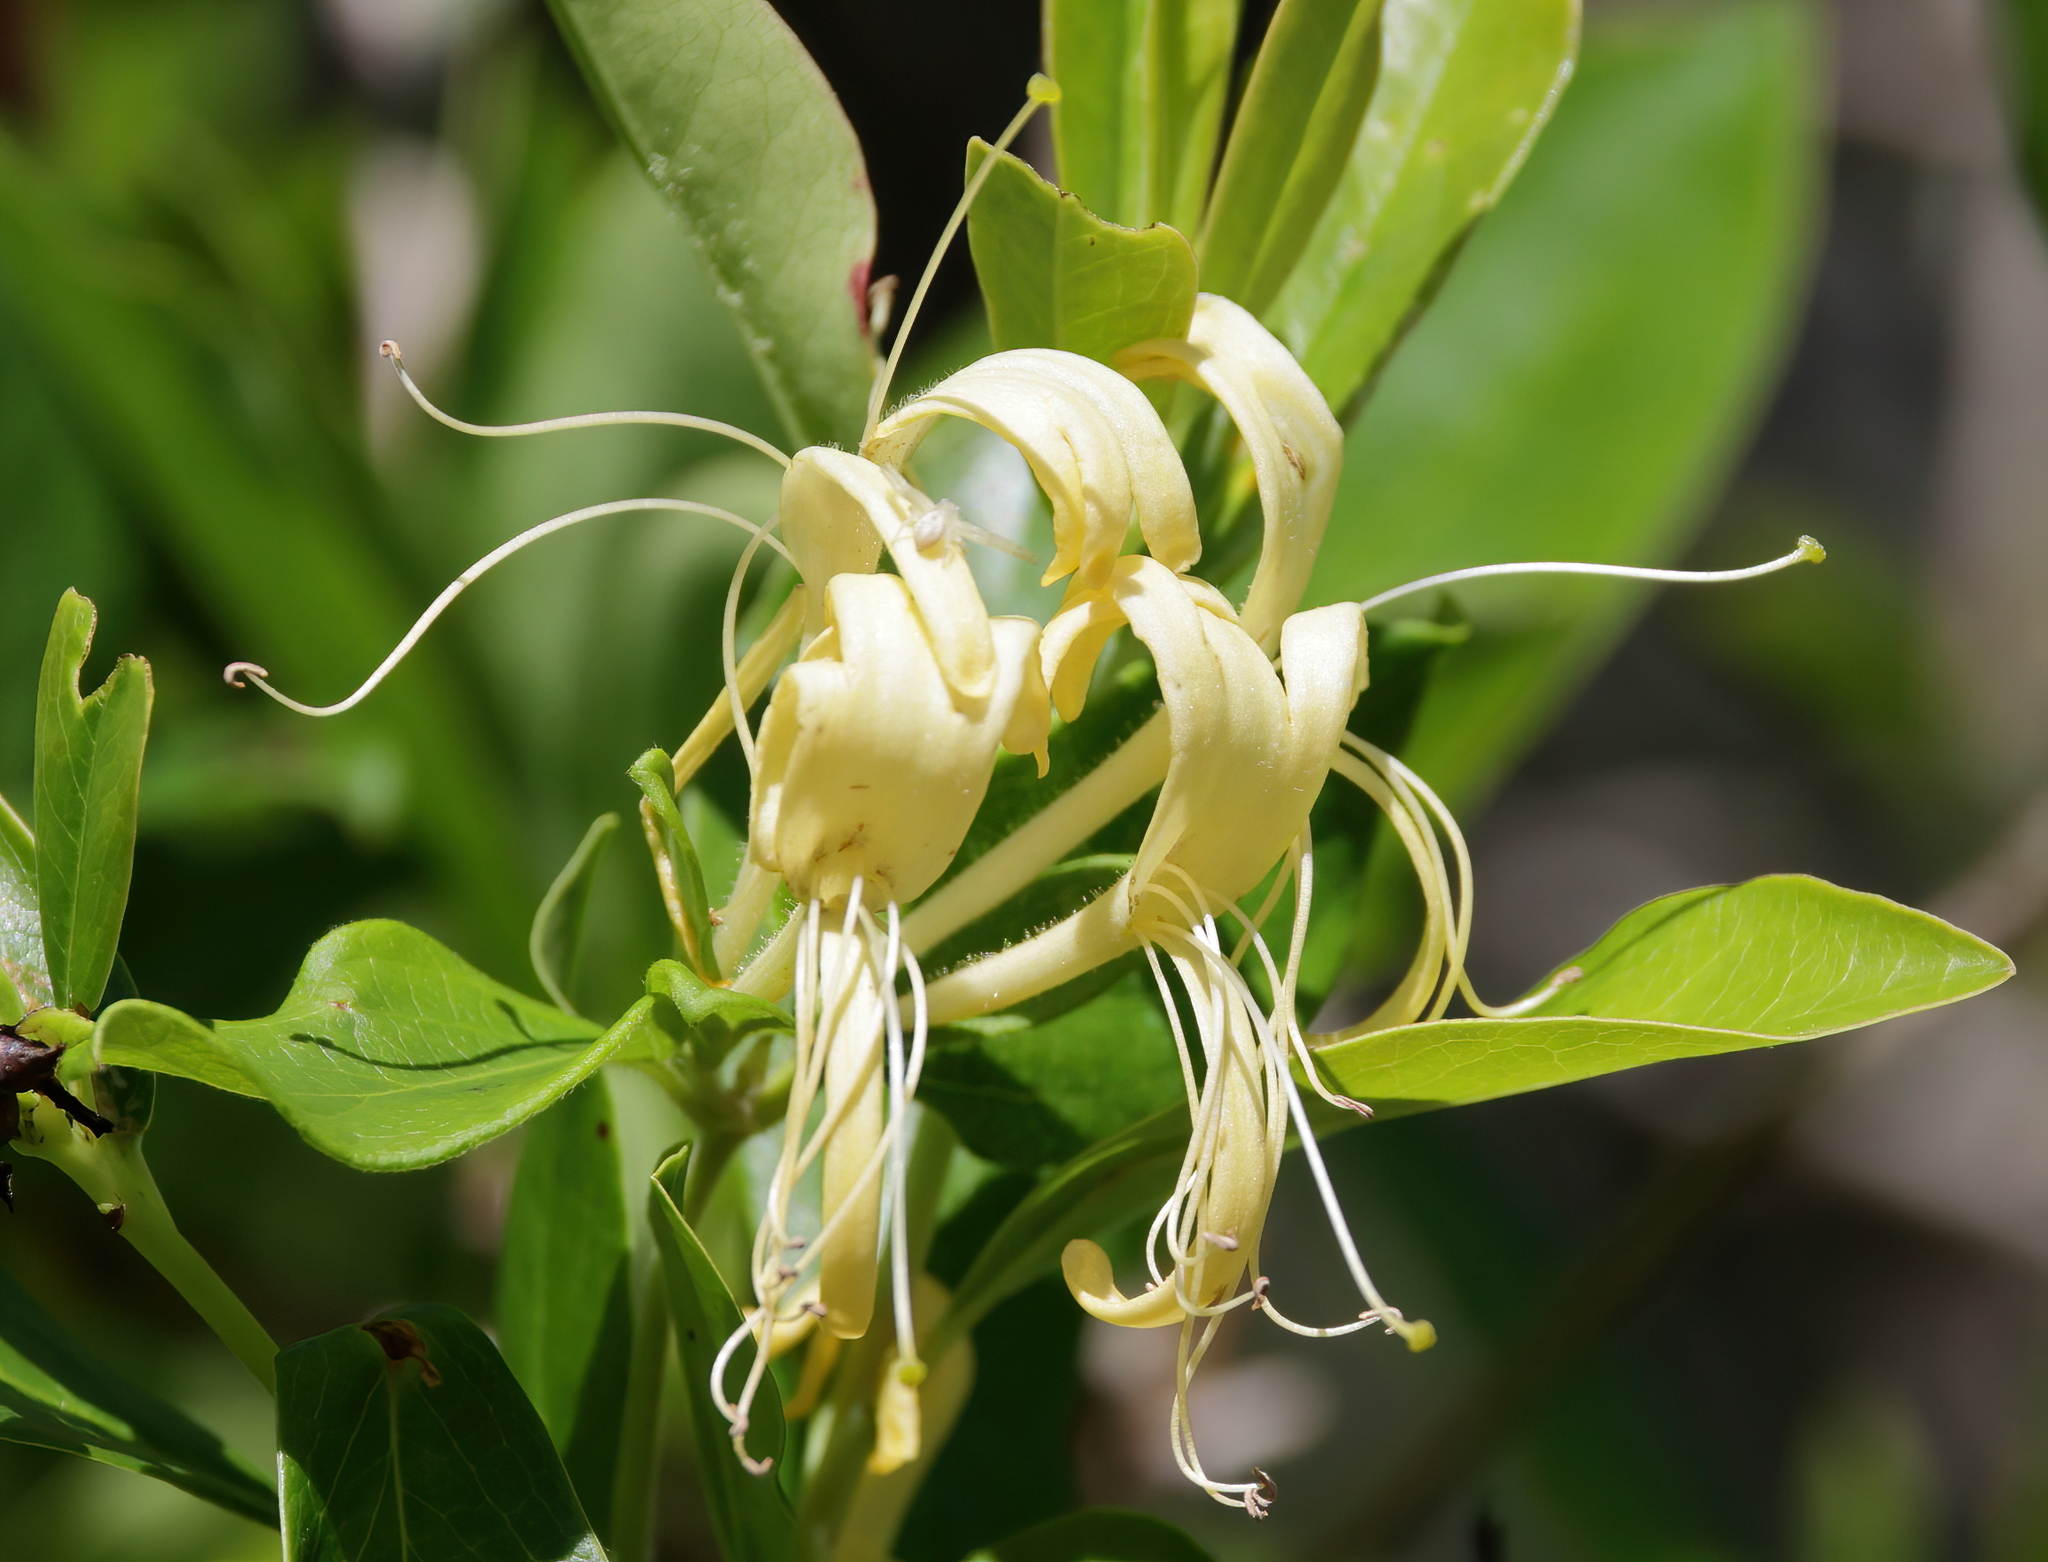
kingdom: Plantae
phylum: Tracheophyta
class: Magnoliopsida
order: Dipsacales
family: Caprifoliaceae
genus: Lonicera
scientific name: Lonicera japonica
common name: Japanese honeysuckle
